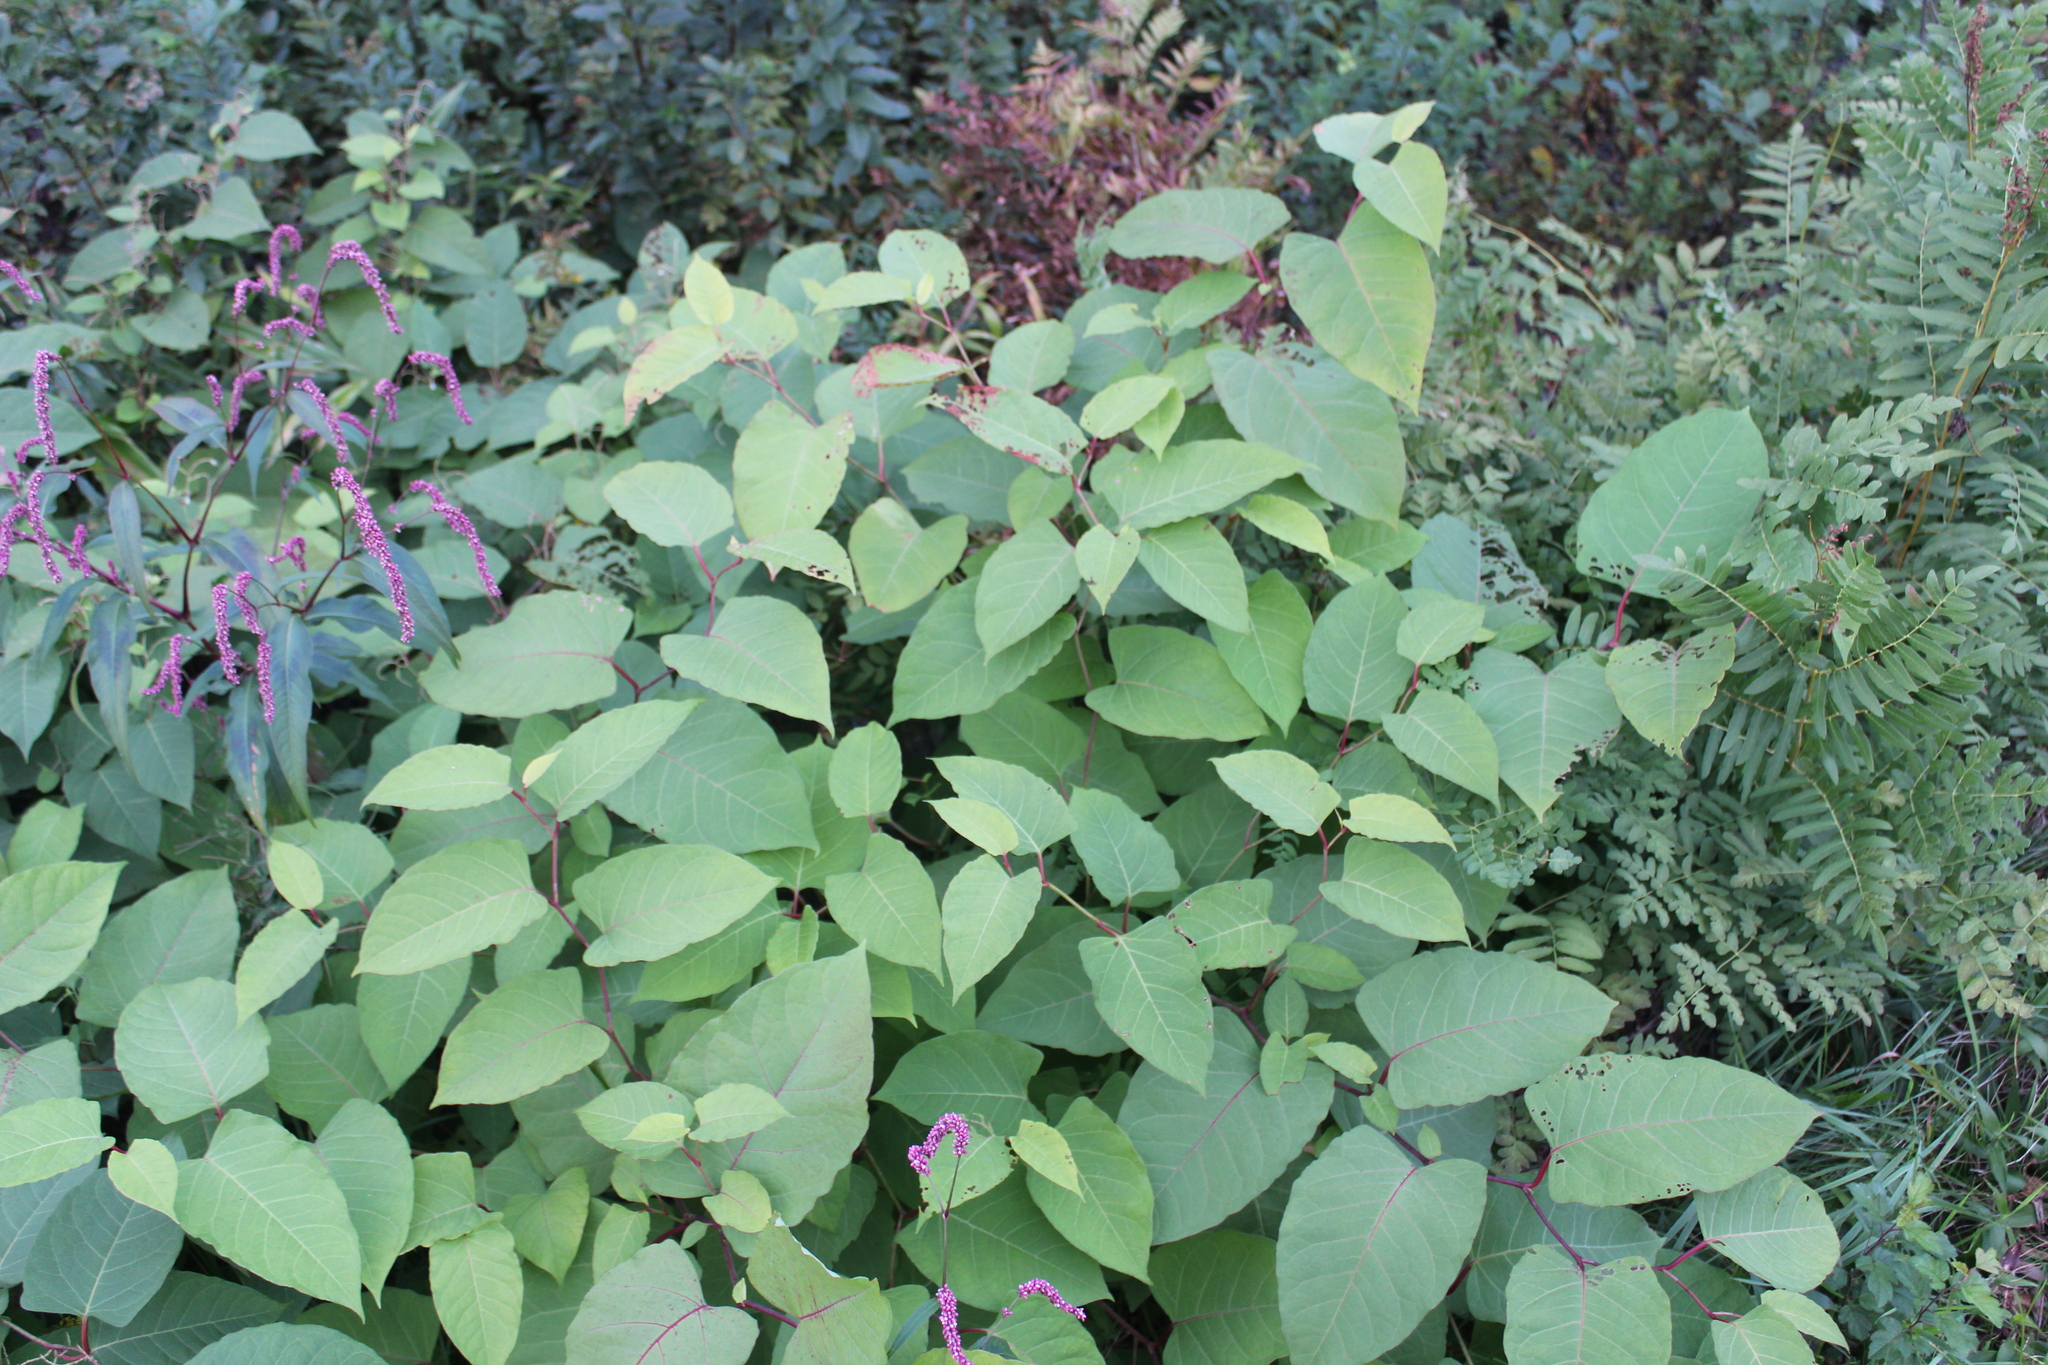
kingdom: Plantae
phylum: Tracheophyta
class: Magnoliopsida
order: Caryophyllales
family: Polygonaceae
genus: Reynoutria
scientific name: Reynoutria japonica
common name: Japanese knotweed
